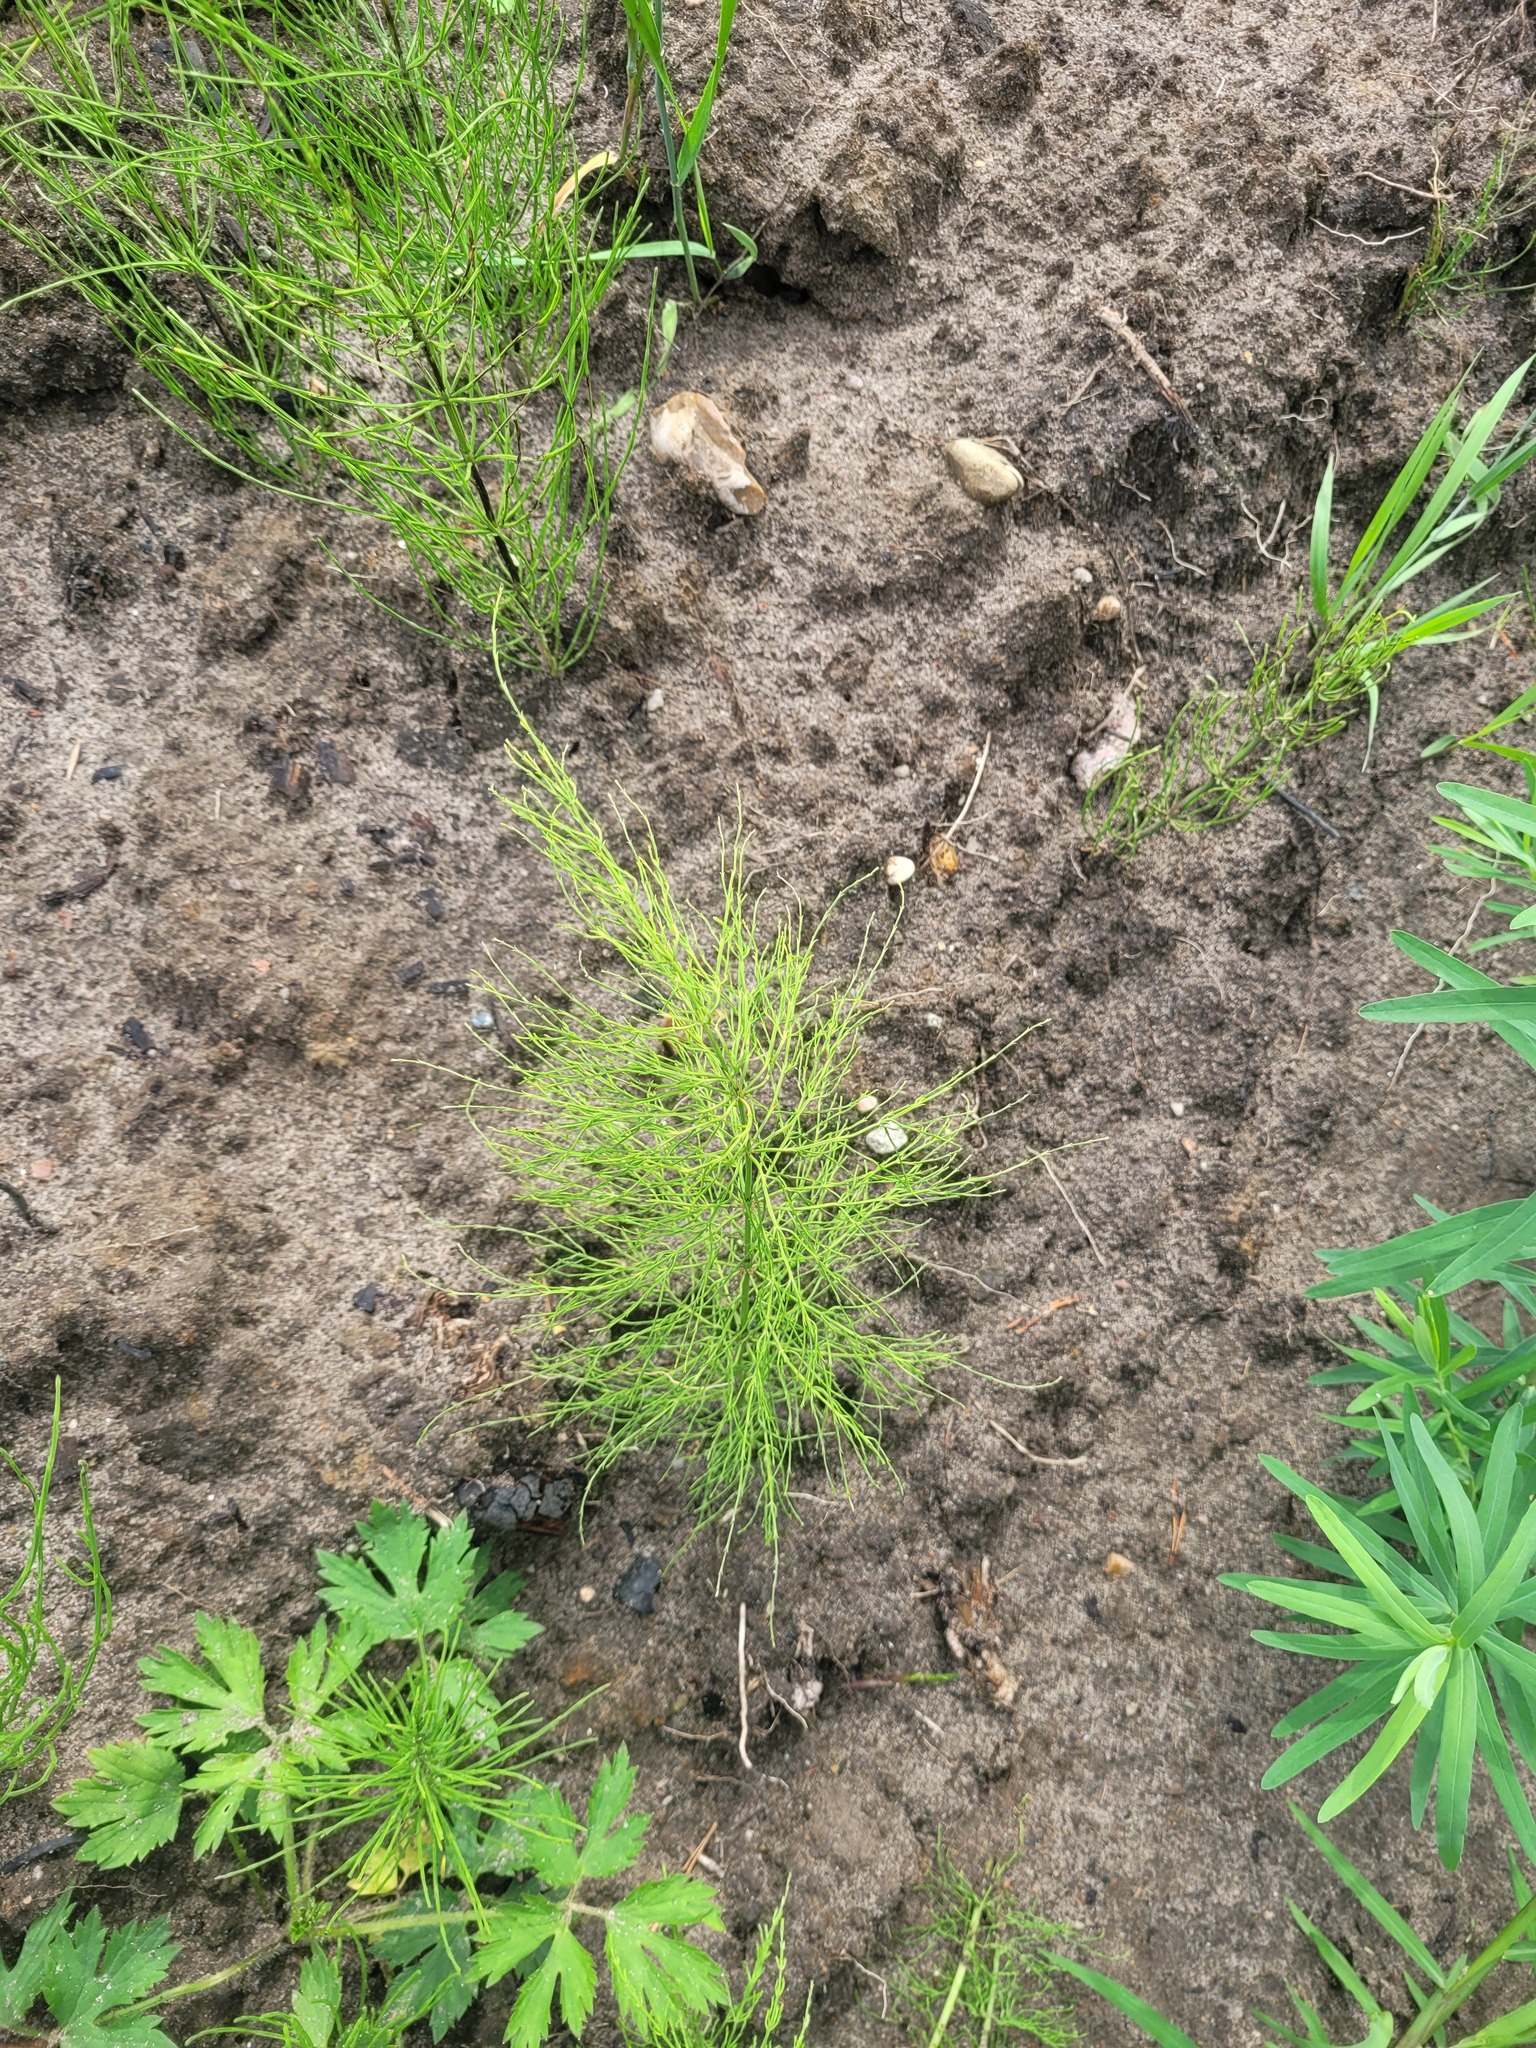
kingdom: Plantae
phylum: Tracheophyta
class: Polypodiopsida
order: Equisetales
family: Equisetaceae
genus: Equisetum
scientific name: Equisetum sylvaticum
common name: Wood horsetail
